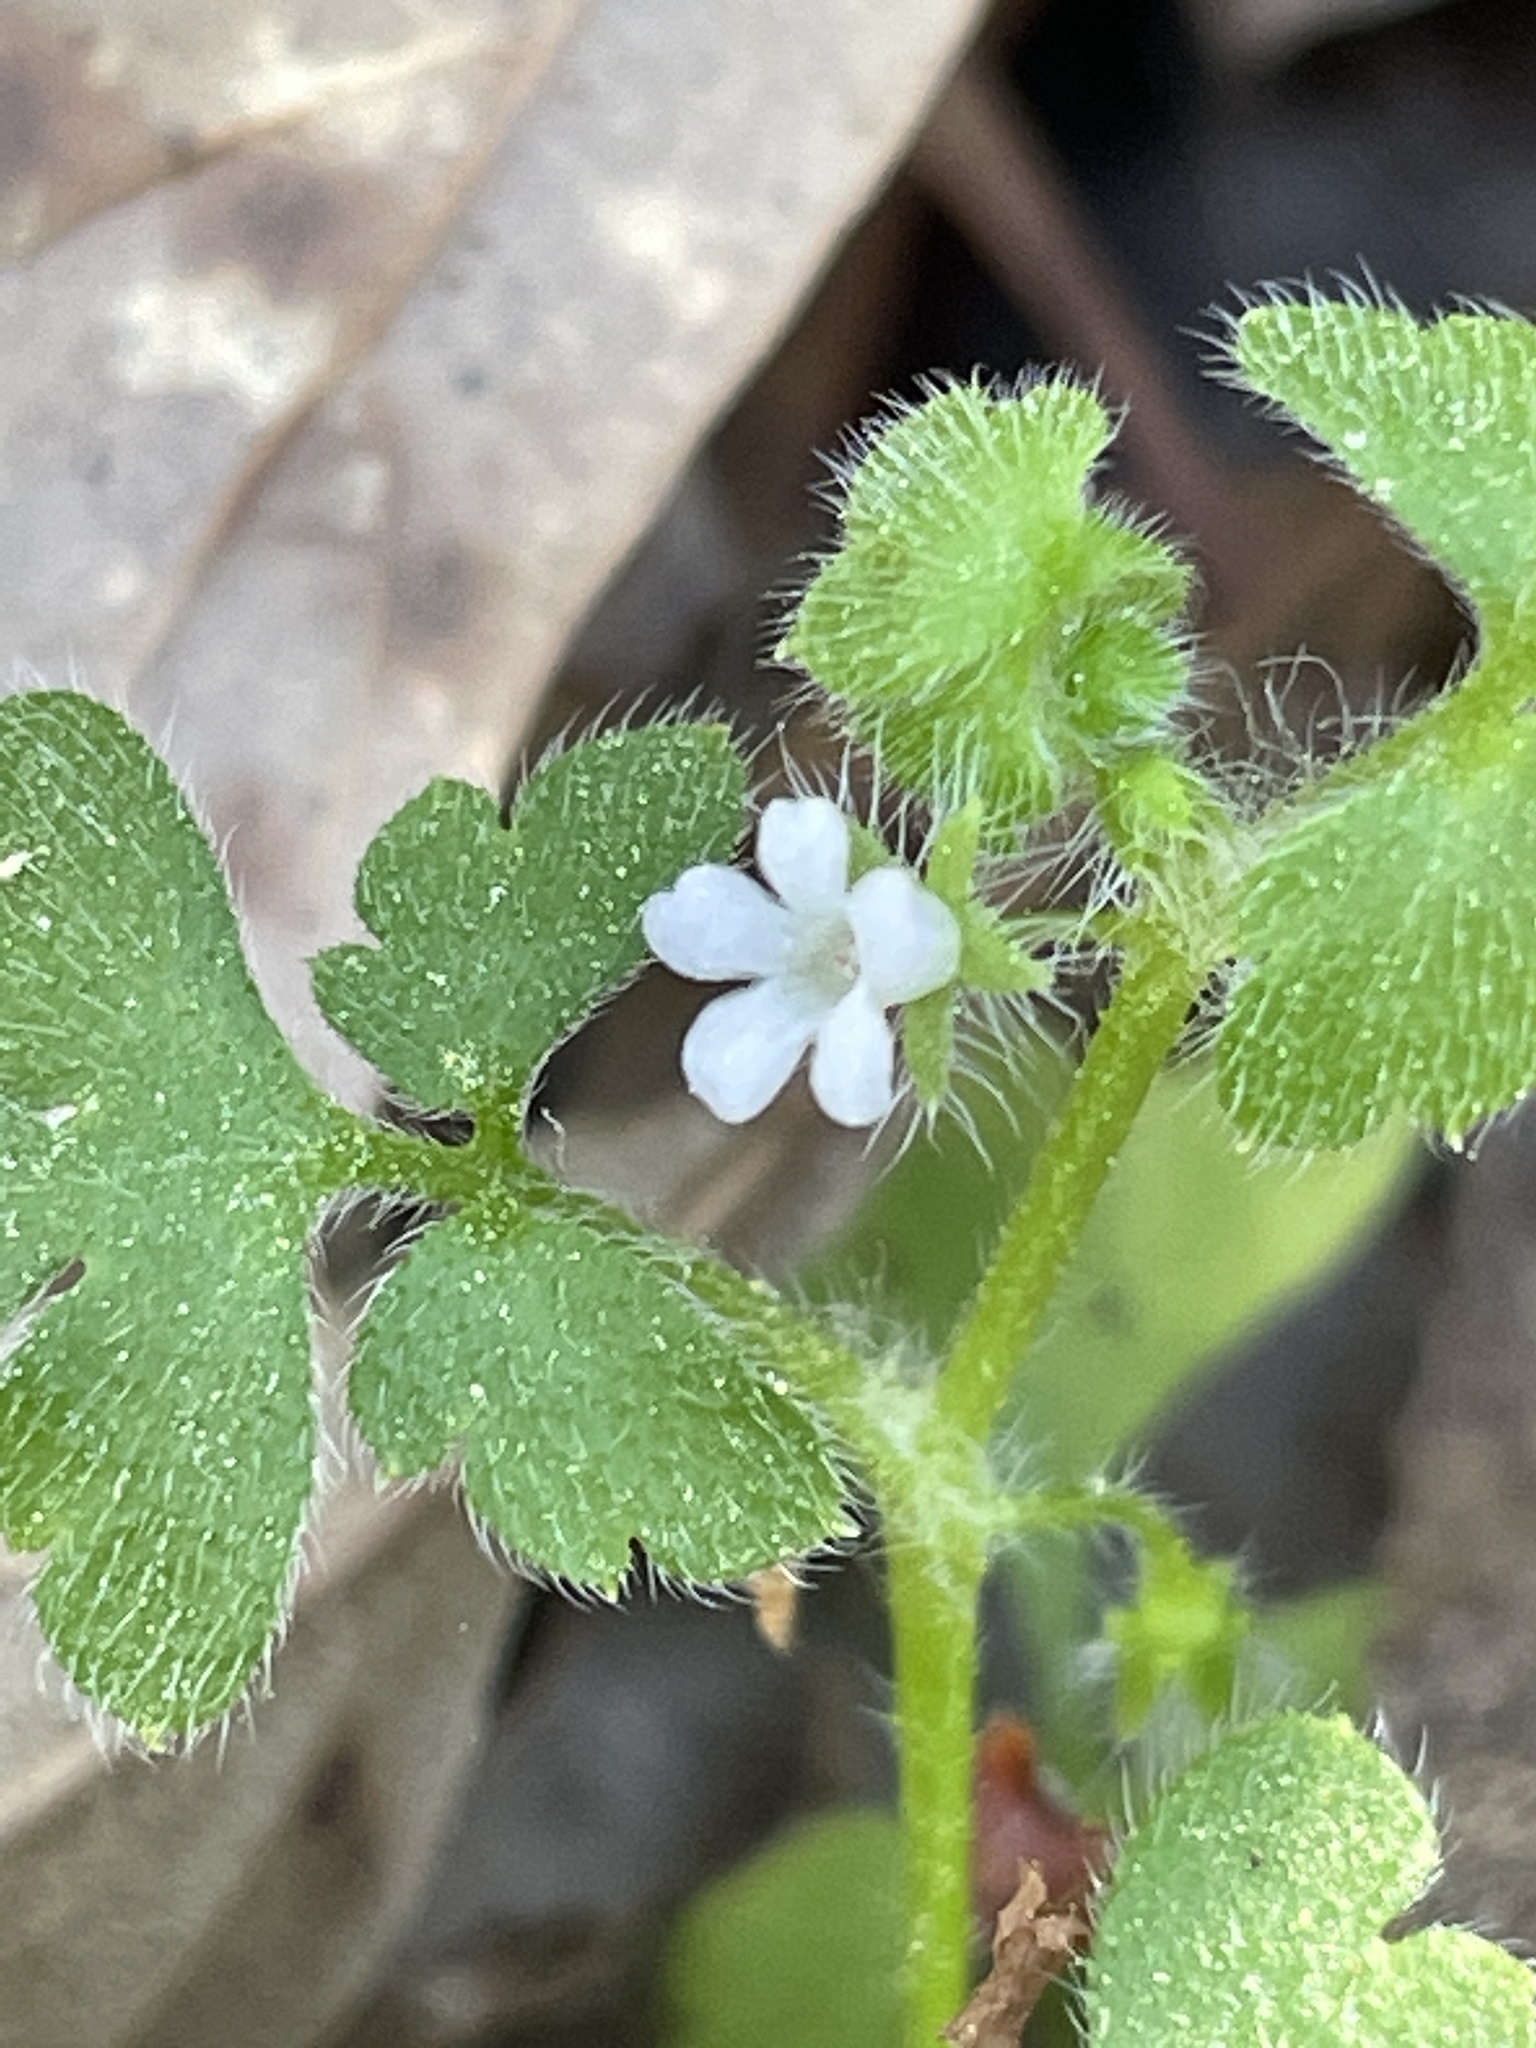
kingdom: Plantae
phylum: Tracheophyta
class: Magnoliopsida
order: Boraginales
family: Hydrophyllaceae
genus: Nemophila
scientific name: Nemophila aphylla
